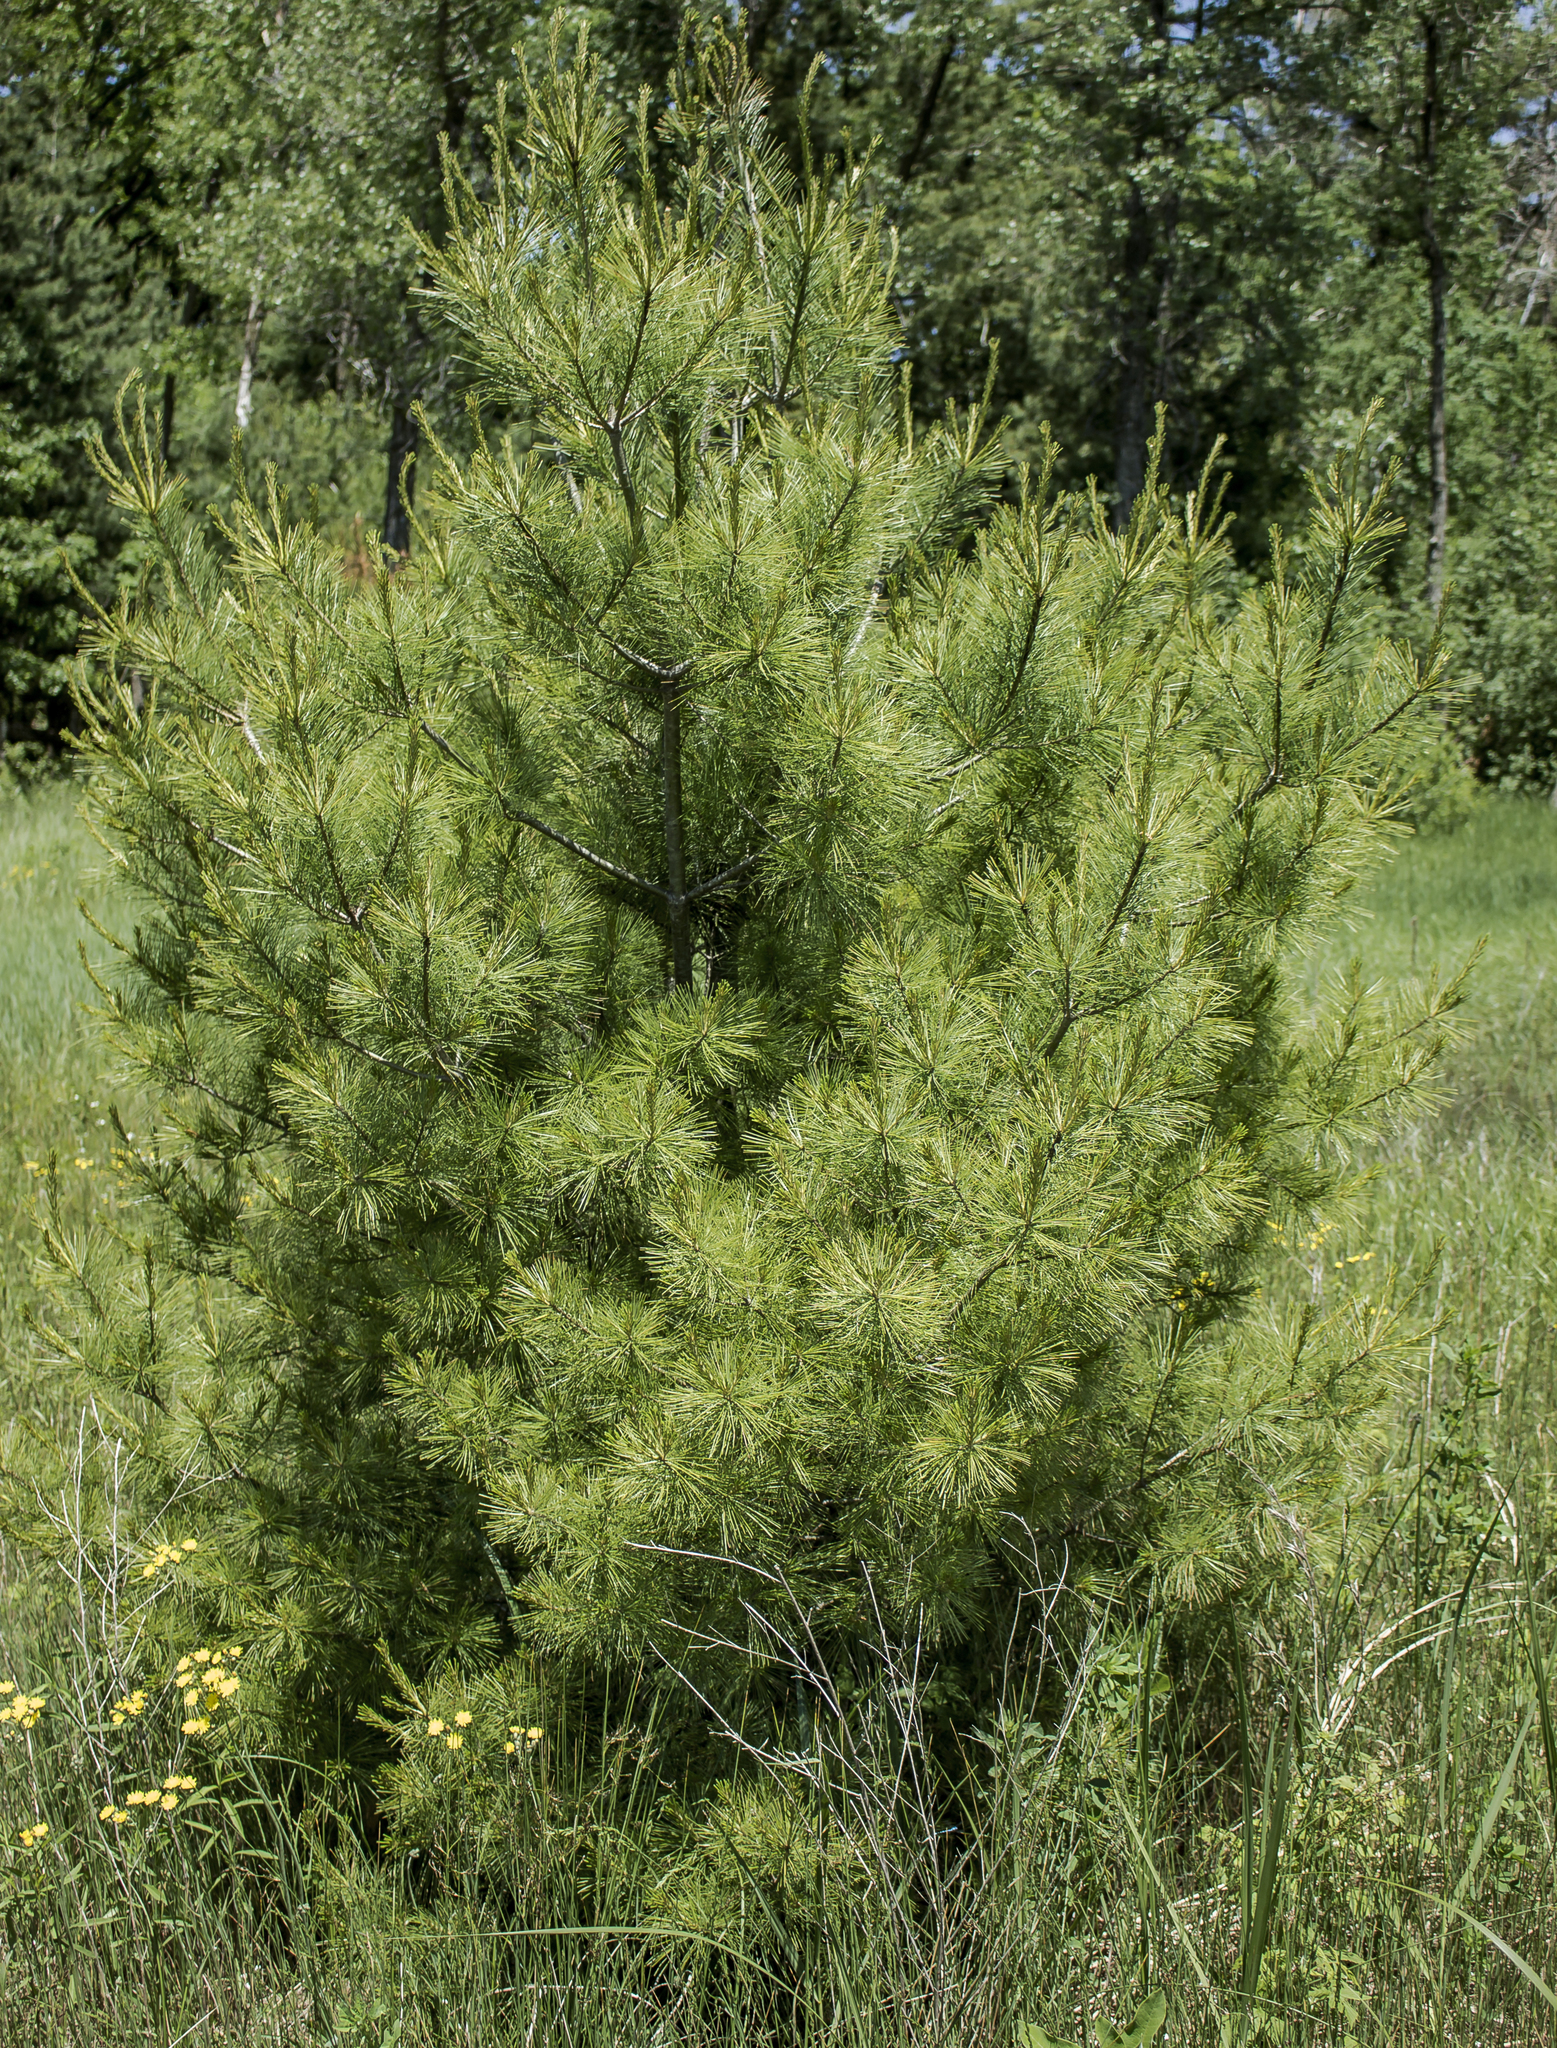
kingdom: Plantae
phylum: Tracheophyta
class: Pinopsida
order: Pinales
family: Pinaceae
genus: Pinus
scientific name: Pinus strobus
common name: Weymouth pine
